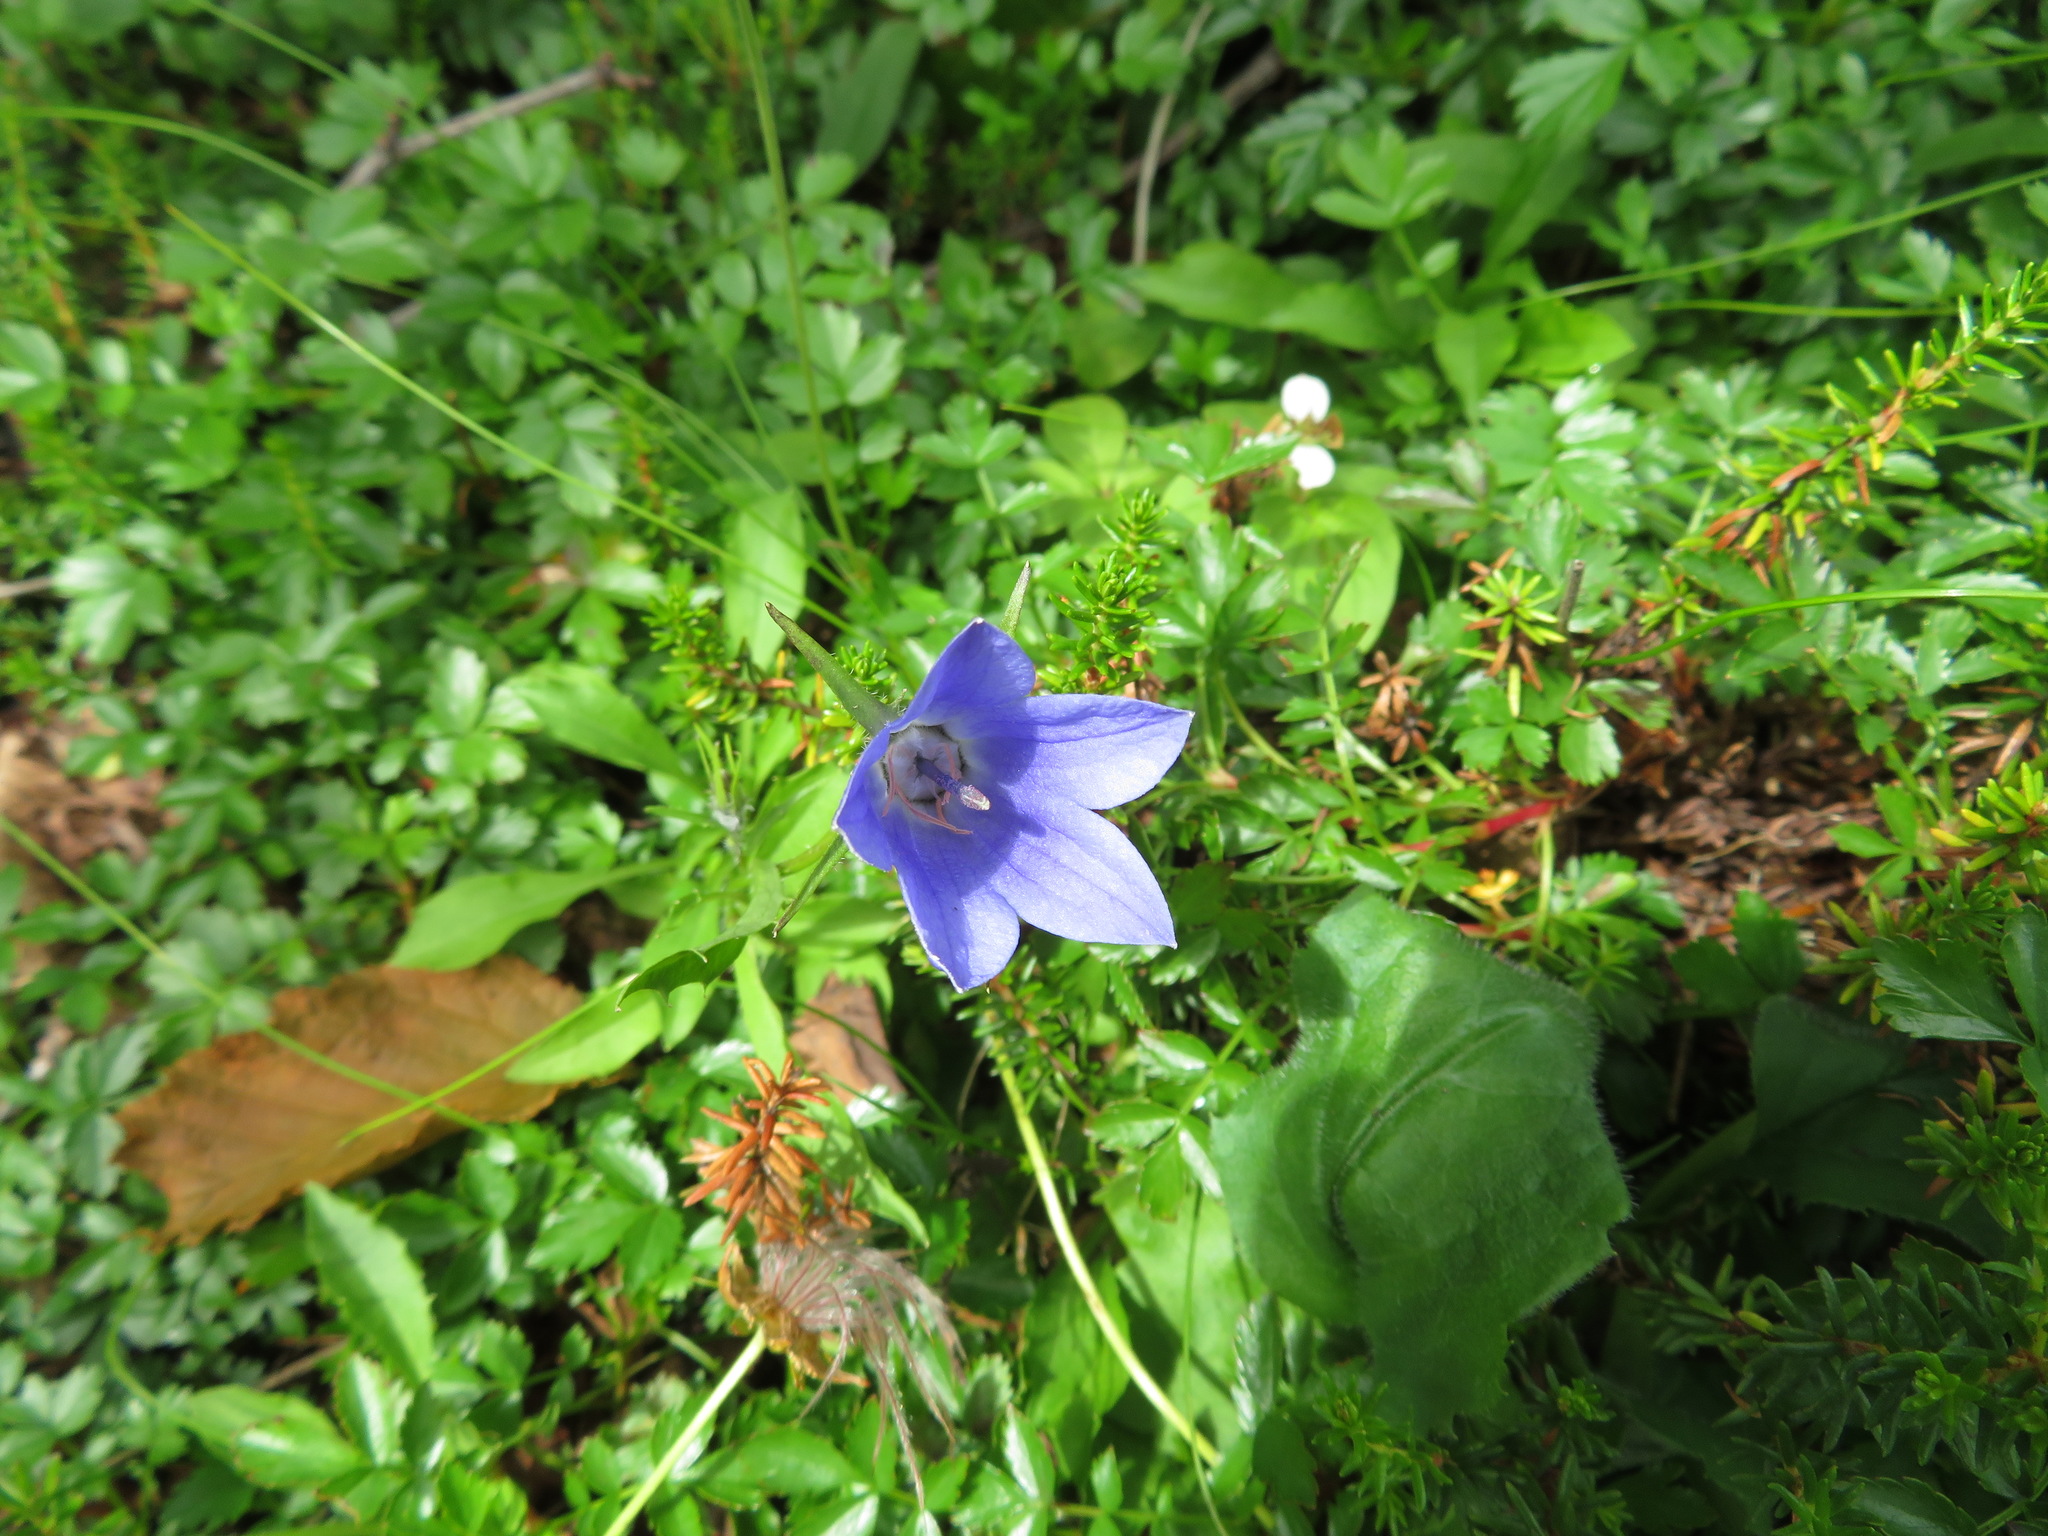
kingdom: Plantae
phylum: Tracheophyta
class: Magnoliopsida
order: Asterales
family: Campanulaceae
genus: Campanula
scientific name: Campanula lasiocarpa
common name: Mountain harebell
